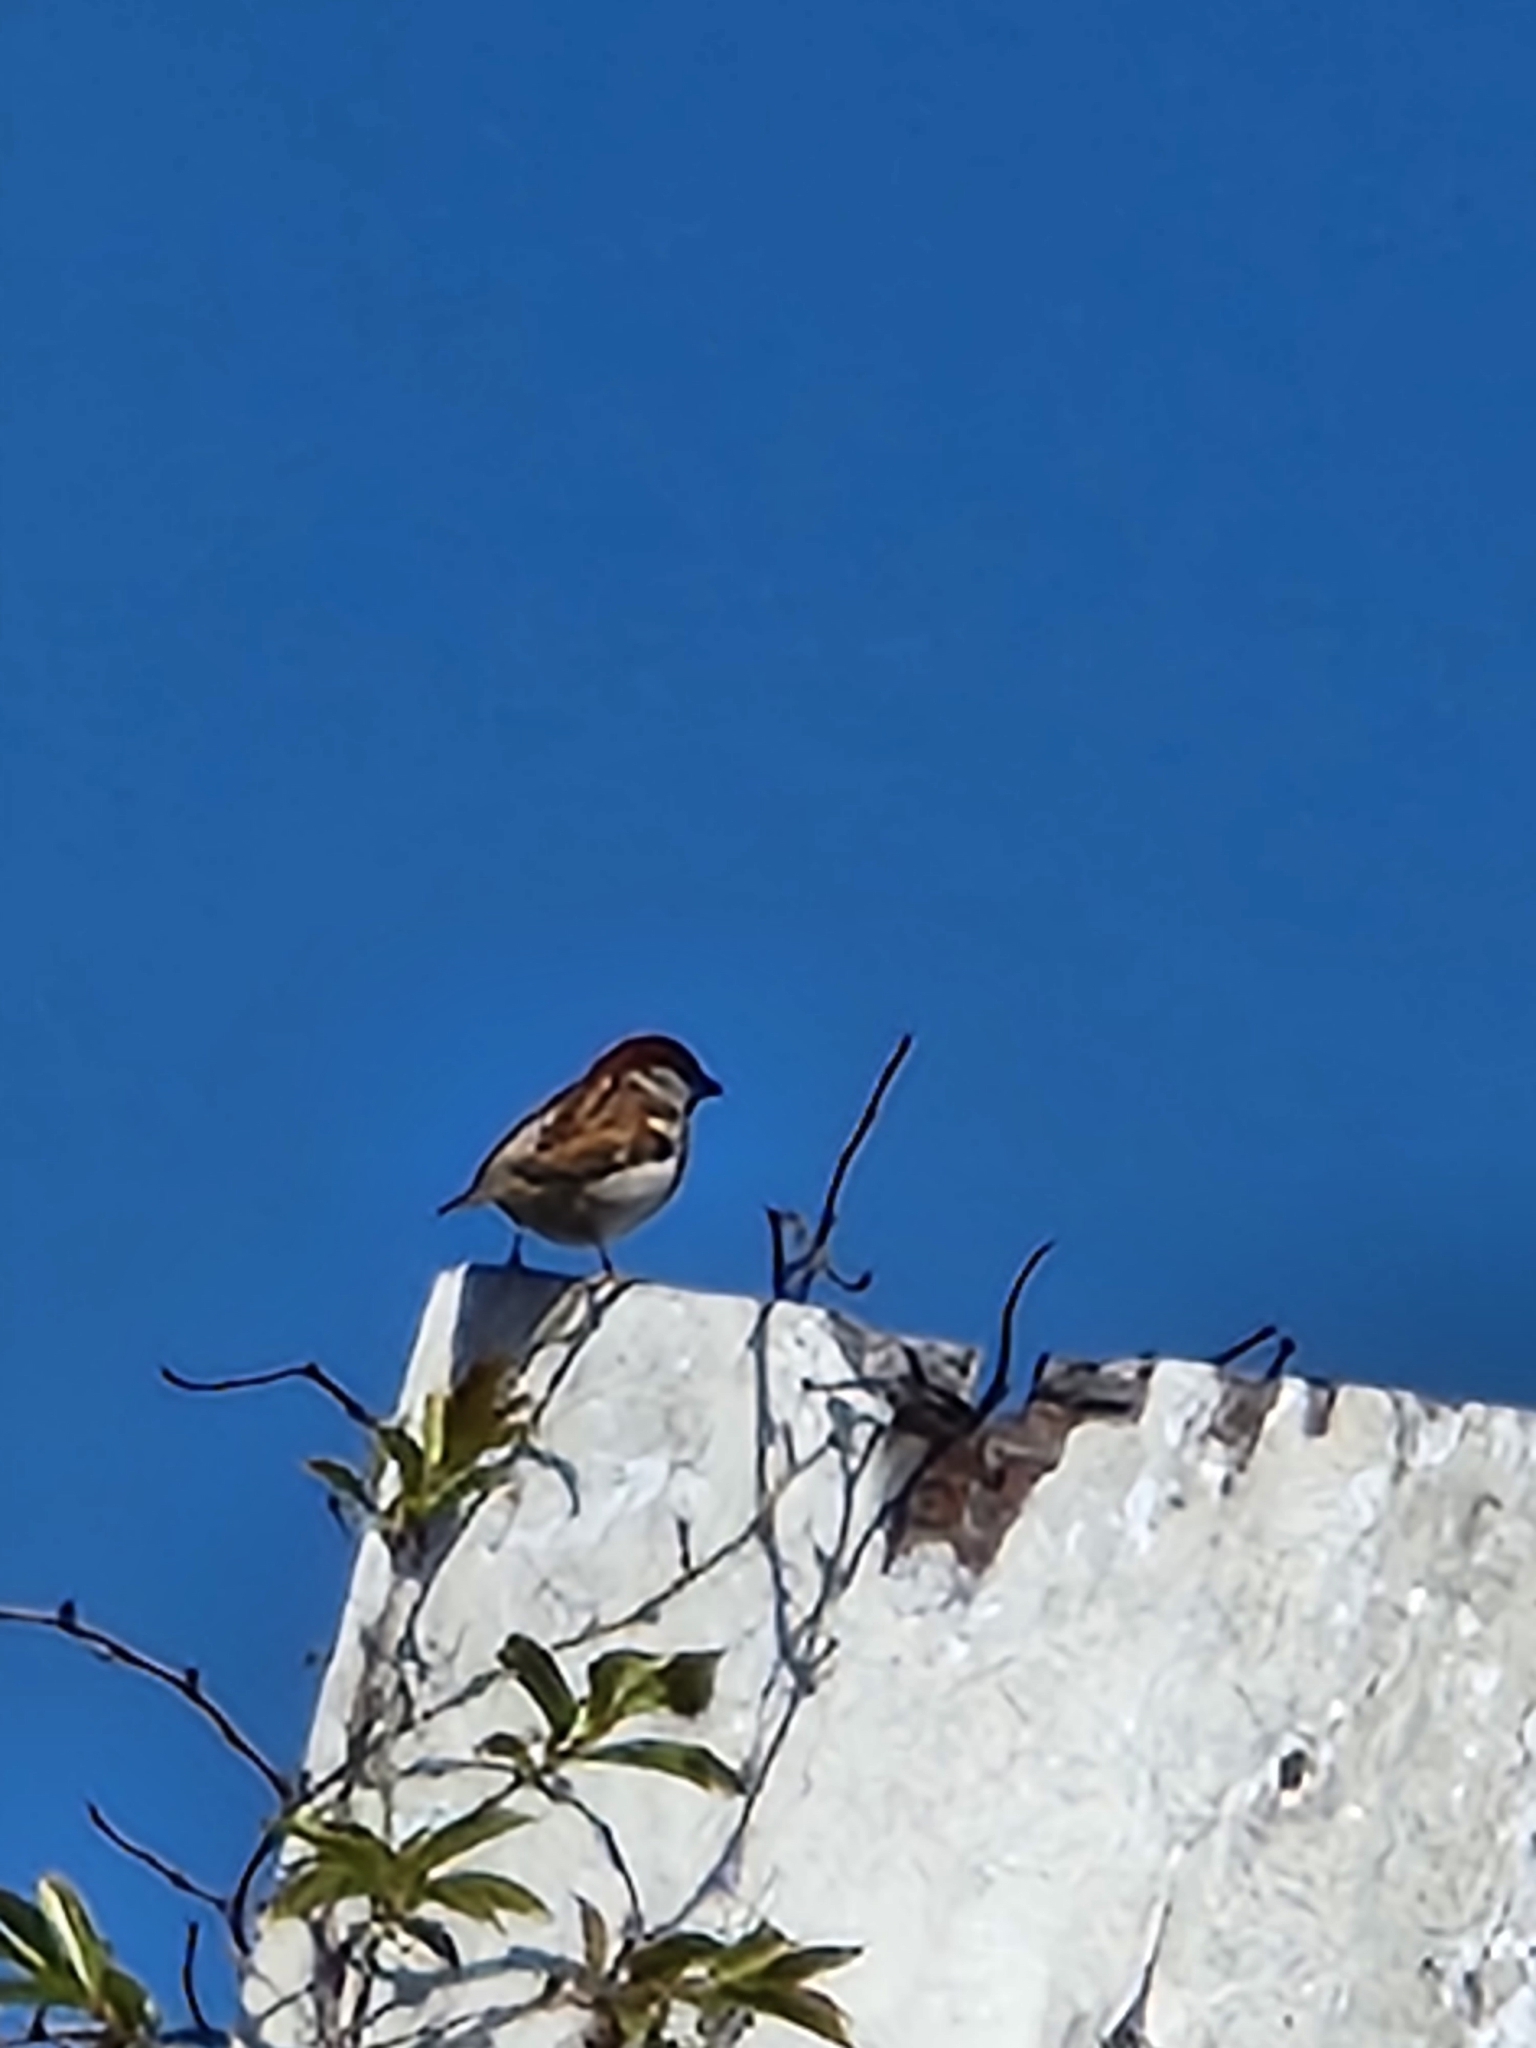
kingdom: Animalia
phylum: Chordata
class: Aves
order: Passeriformes
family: Passeridae
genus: Passer
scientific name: Passer domesticus
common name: House sparrow
